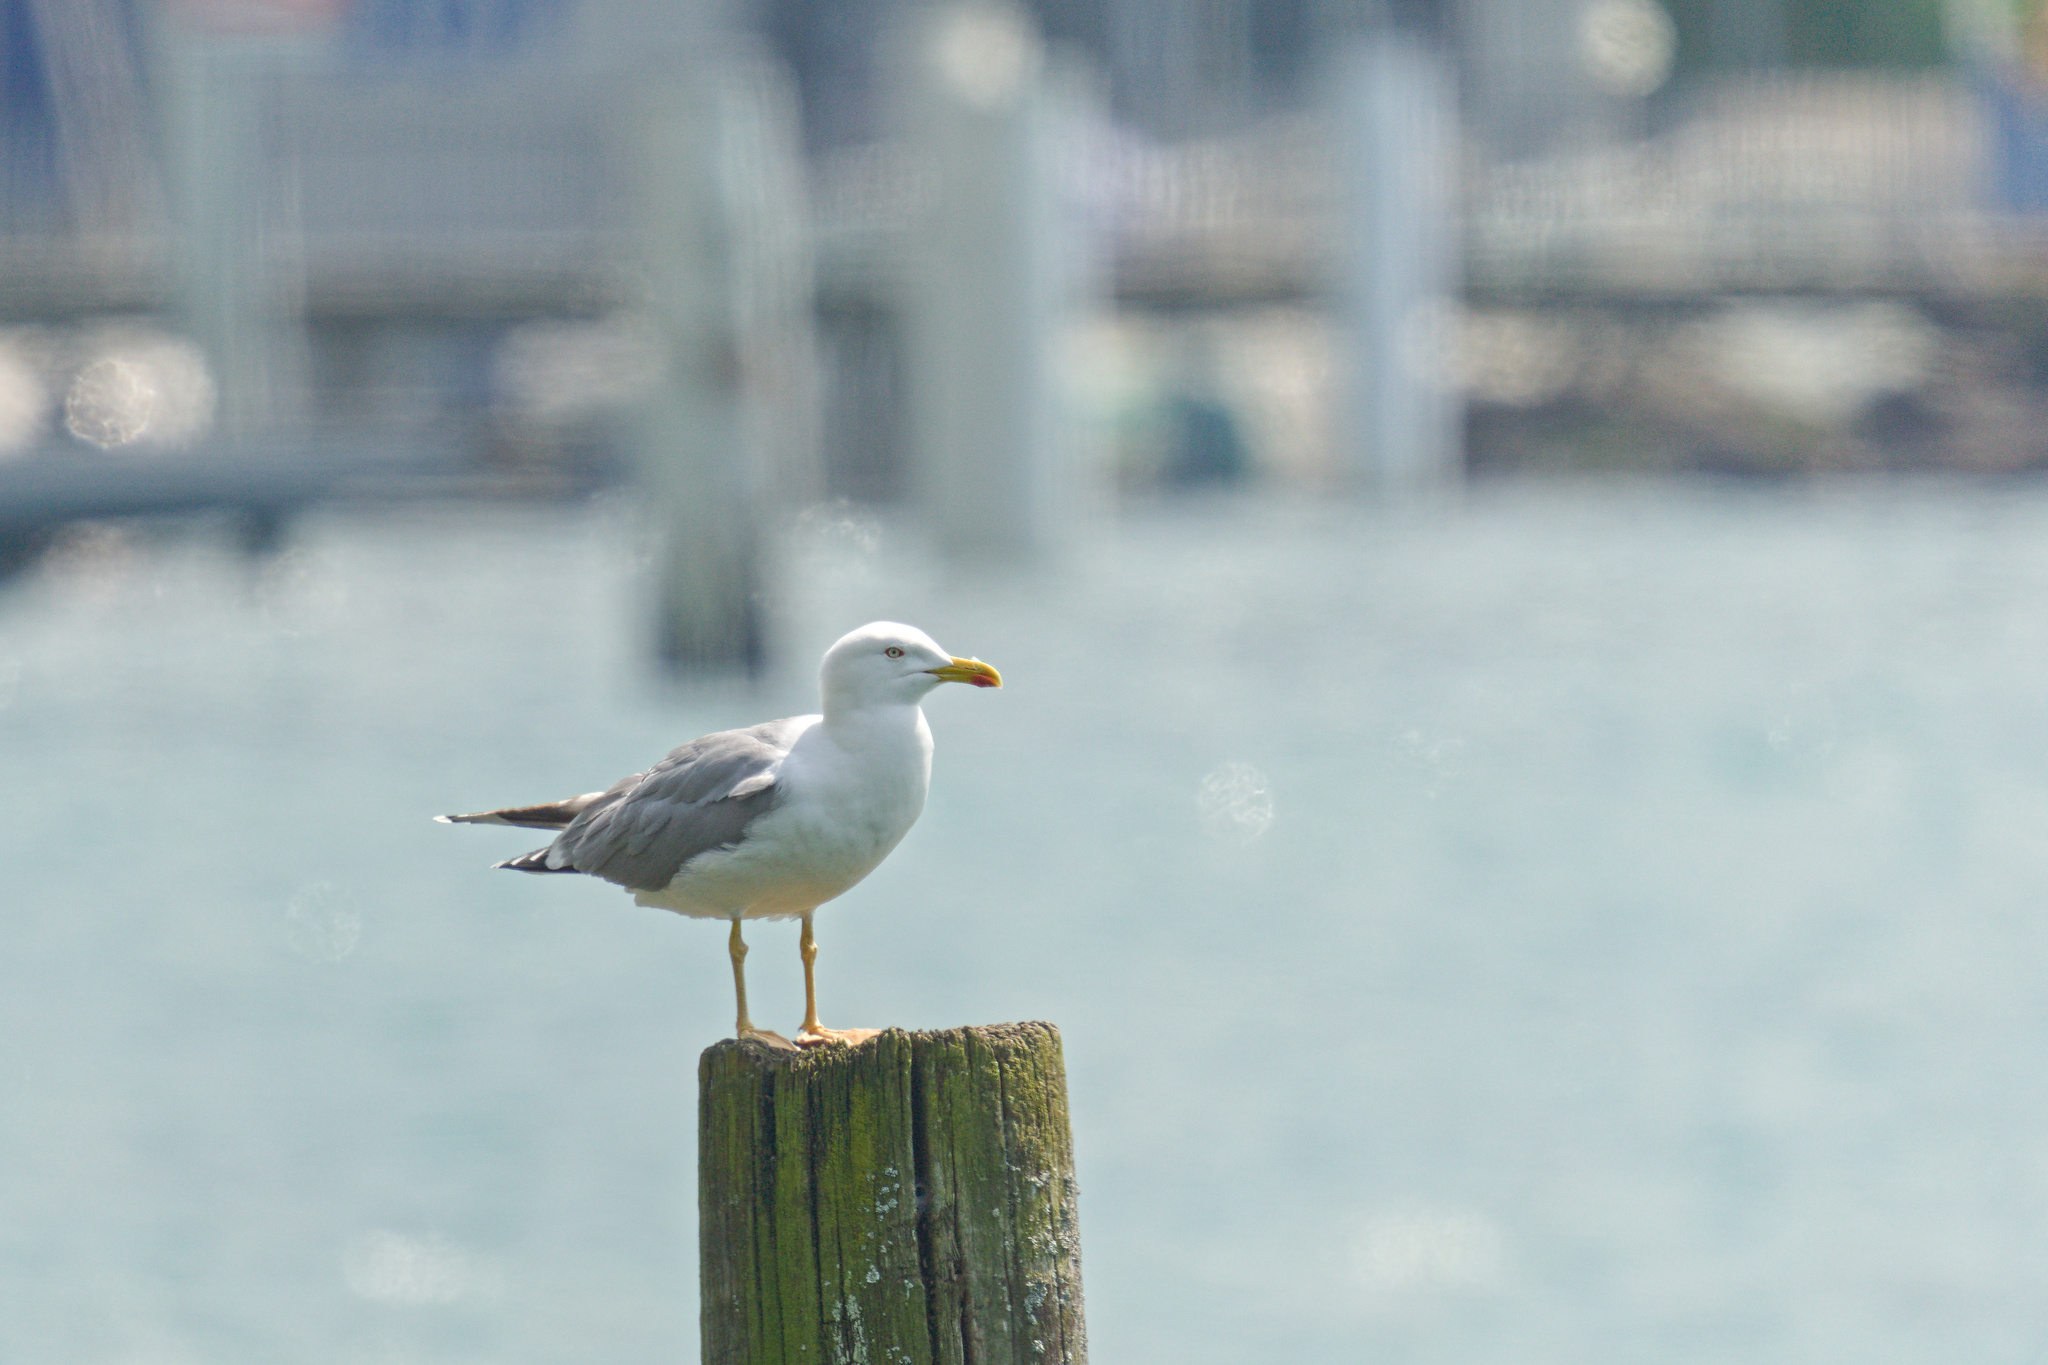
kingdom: Animalia
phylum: Chordata
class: Aves
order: Charadriiformes
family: Laridae
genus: Larus
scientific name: Larus michahellis
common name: Yellow-legged gull
